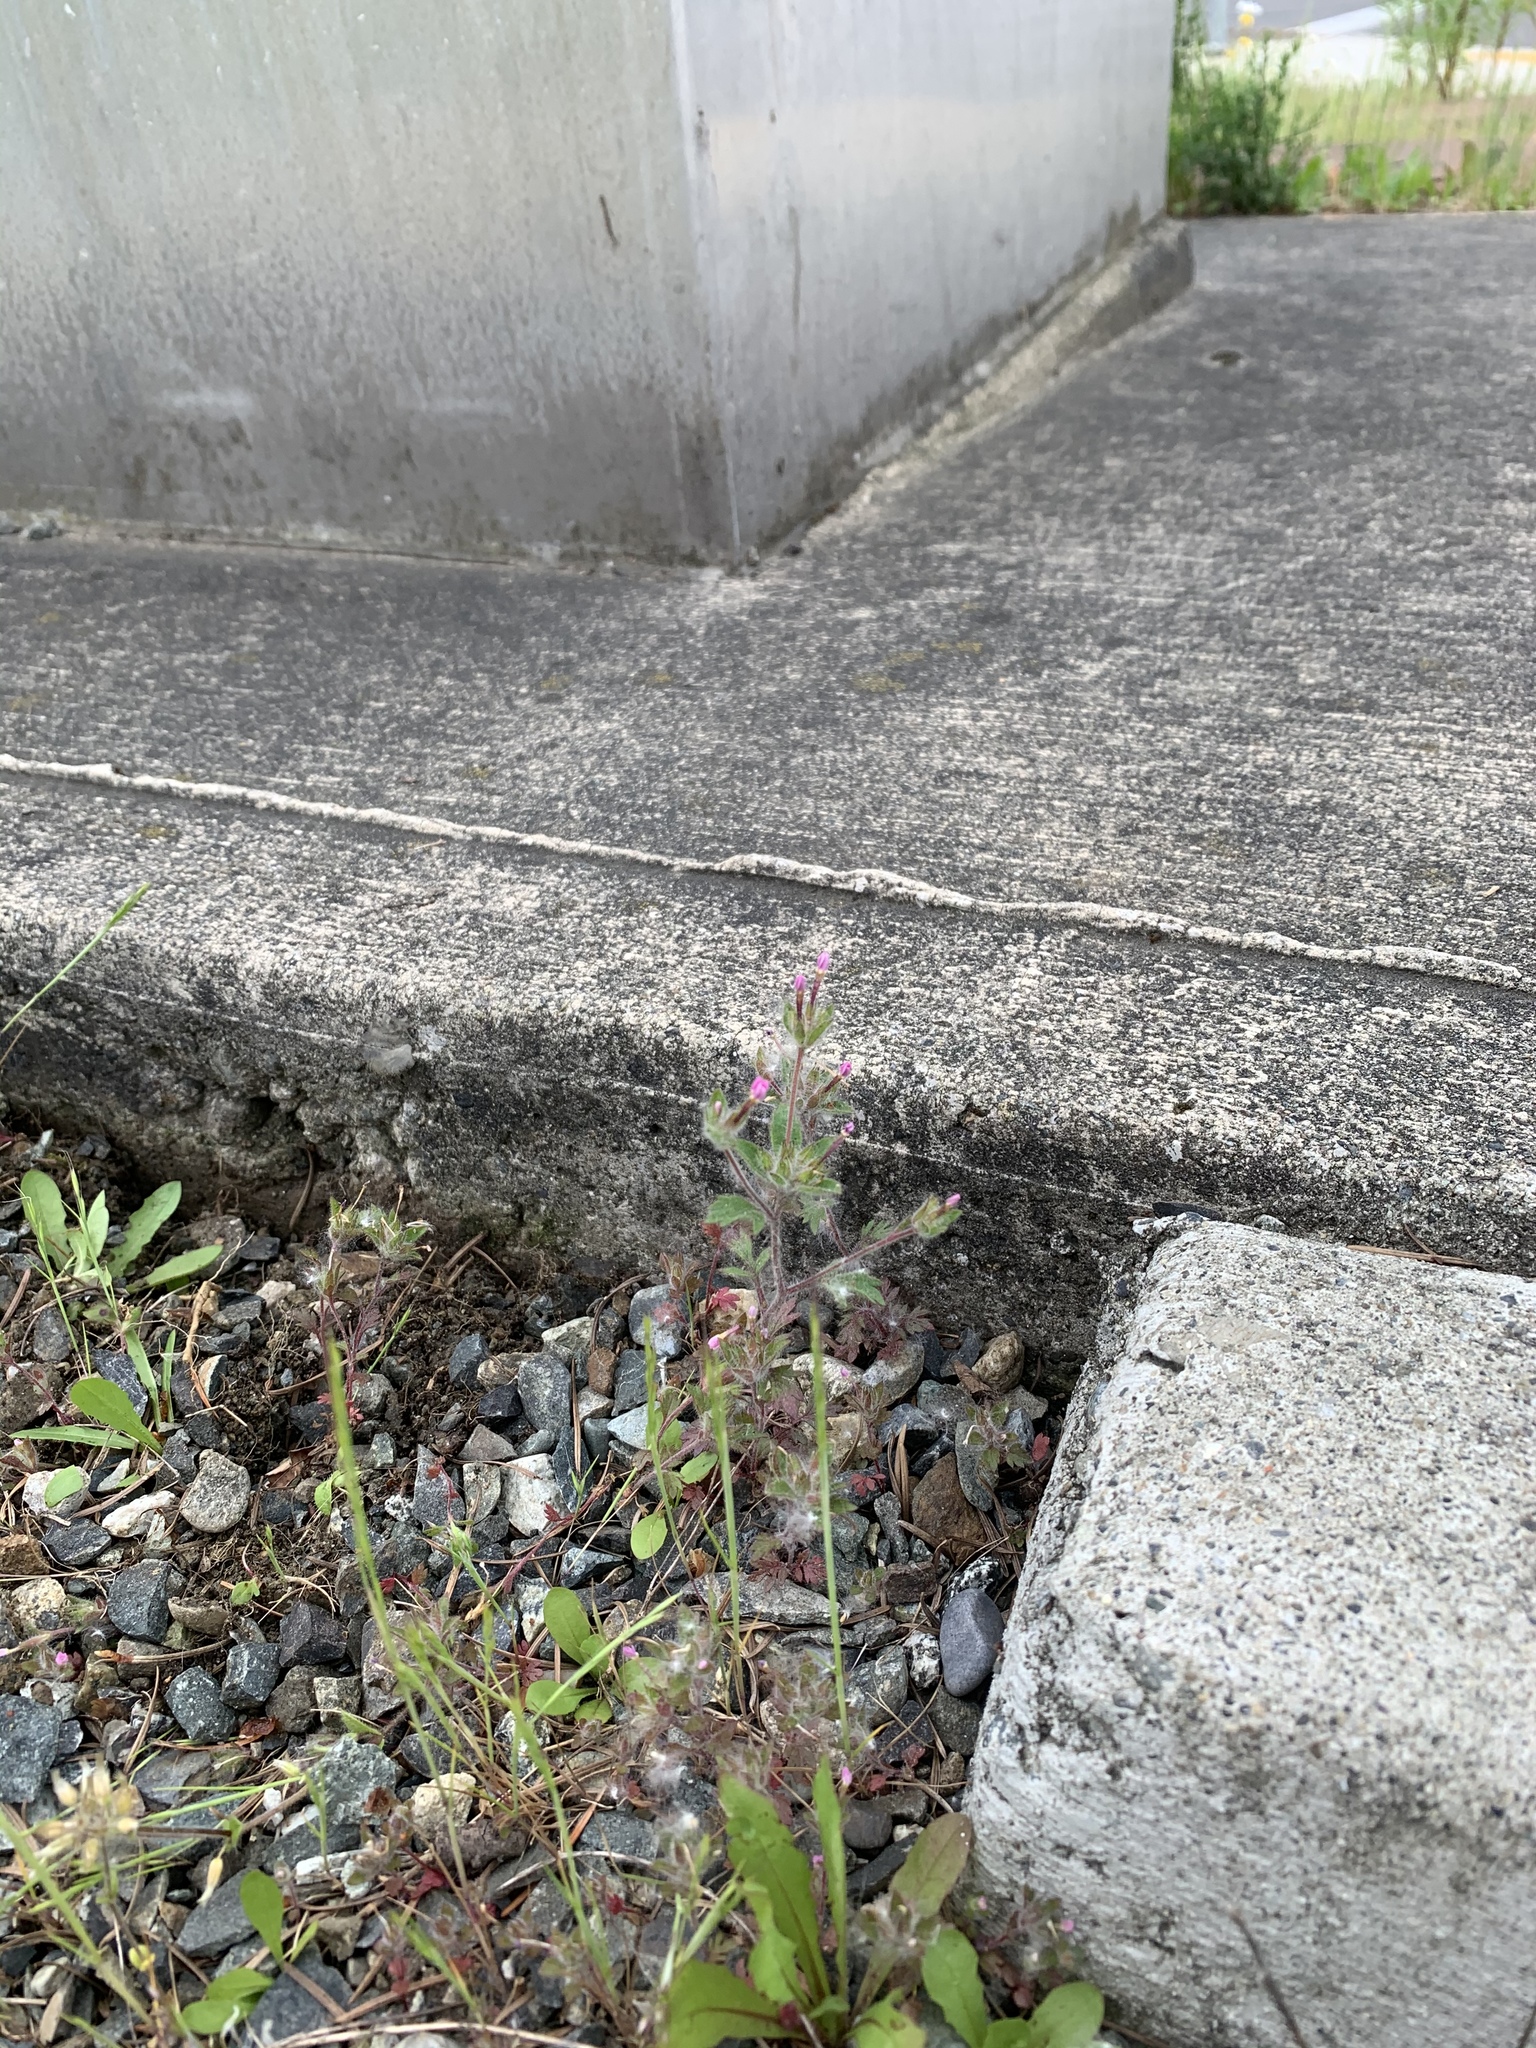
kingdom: Plantae
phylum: Tracheophyta
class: Magnoliopsida
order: Ericales
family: Polemoniaceae
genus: Collomia
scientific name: Collomia heterophylla
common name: Variable-leaved collomia
